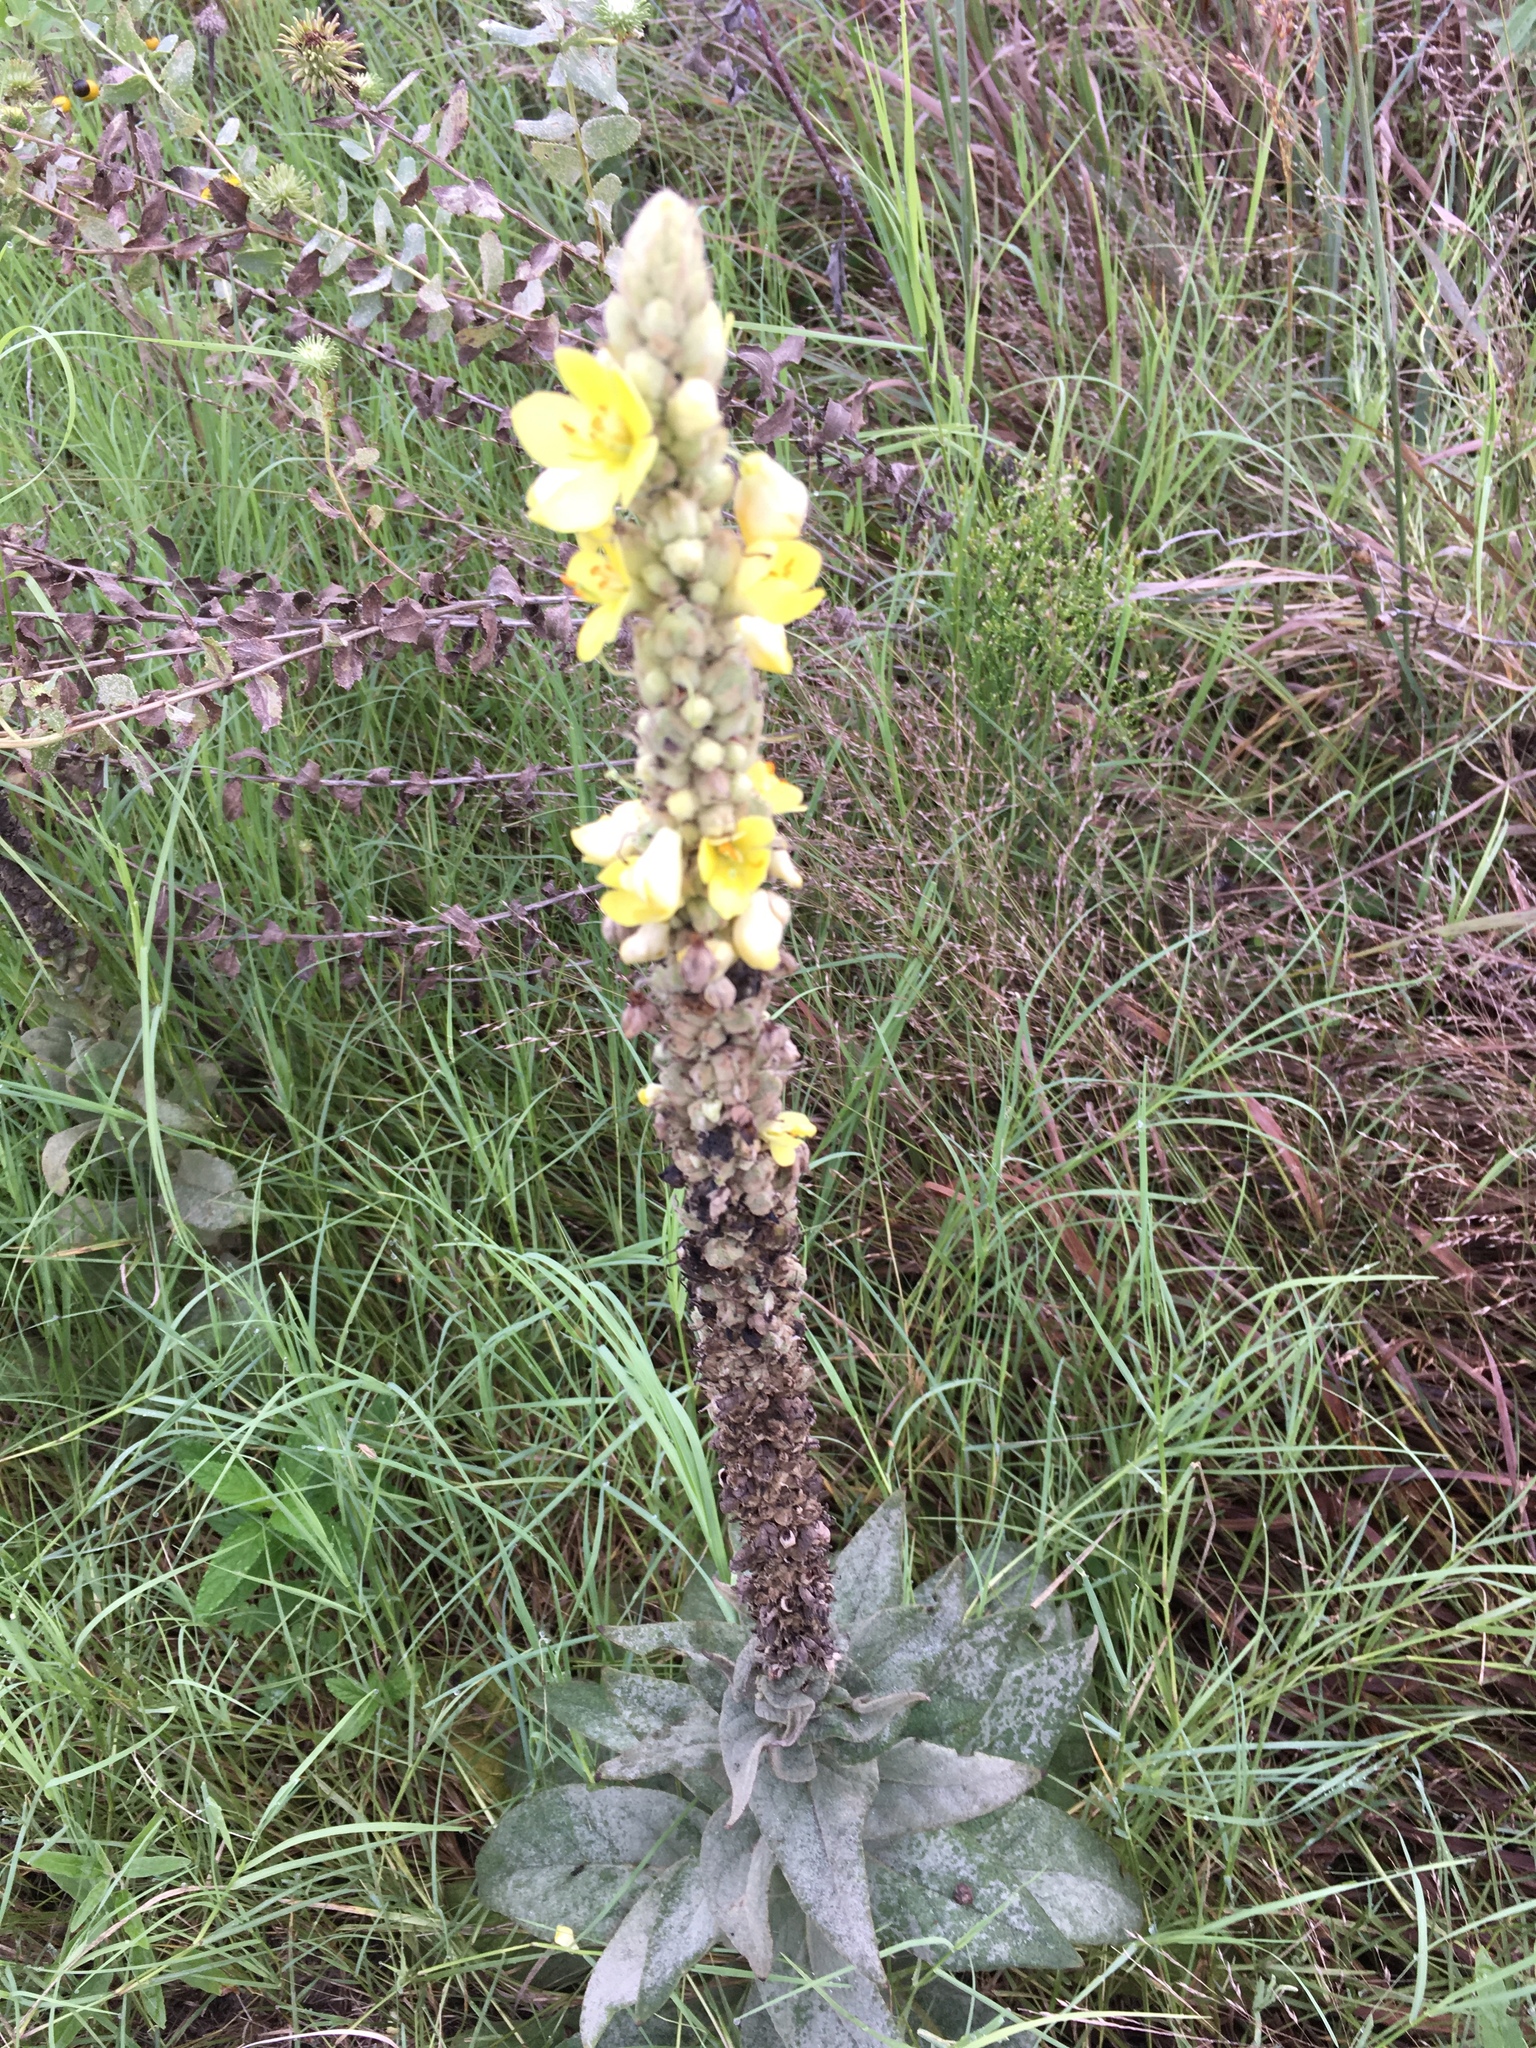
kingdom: Plantae
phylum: Tracheophyta
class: Magnoliopsida
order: Lamiales
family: Scrophulariaceae
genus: Verbascum
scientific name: Verbascum thapsus
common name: Common mullein
